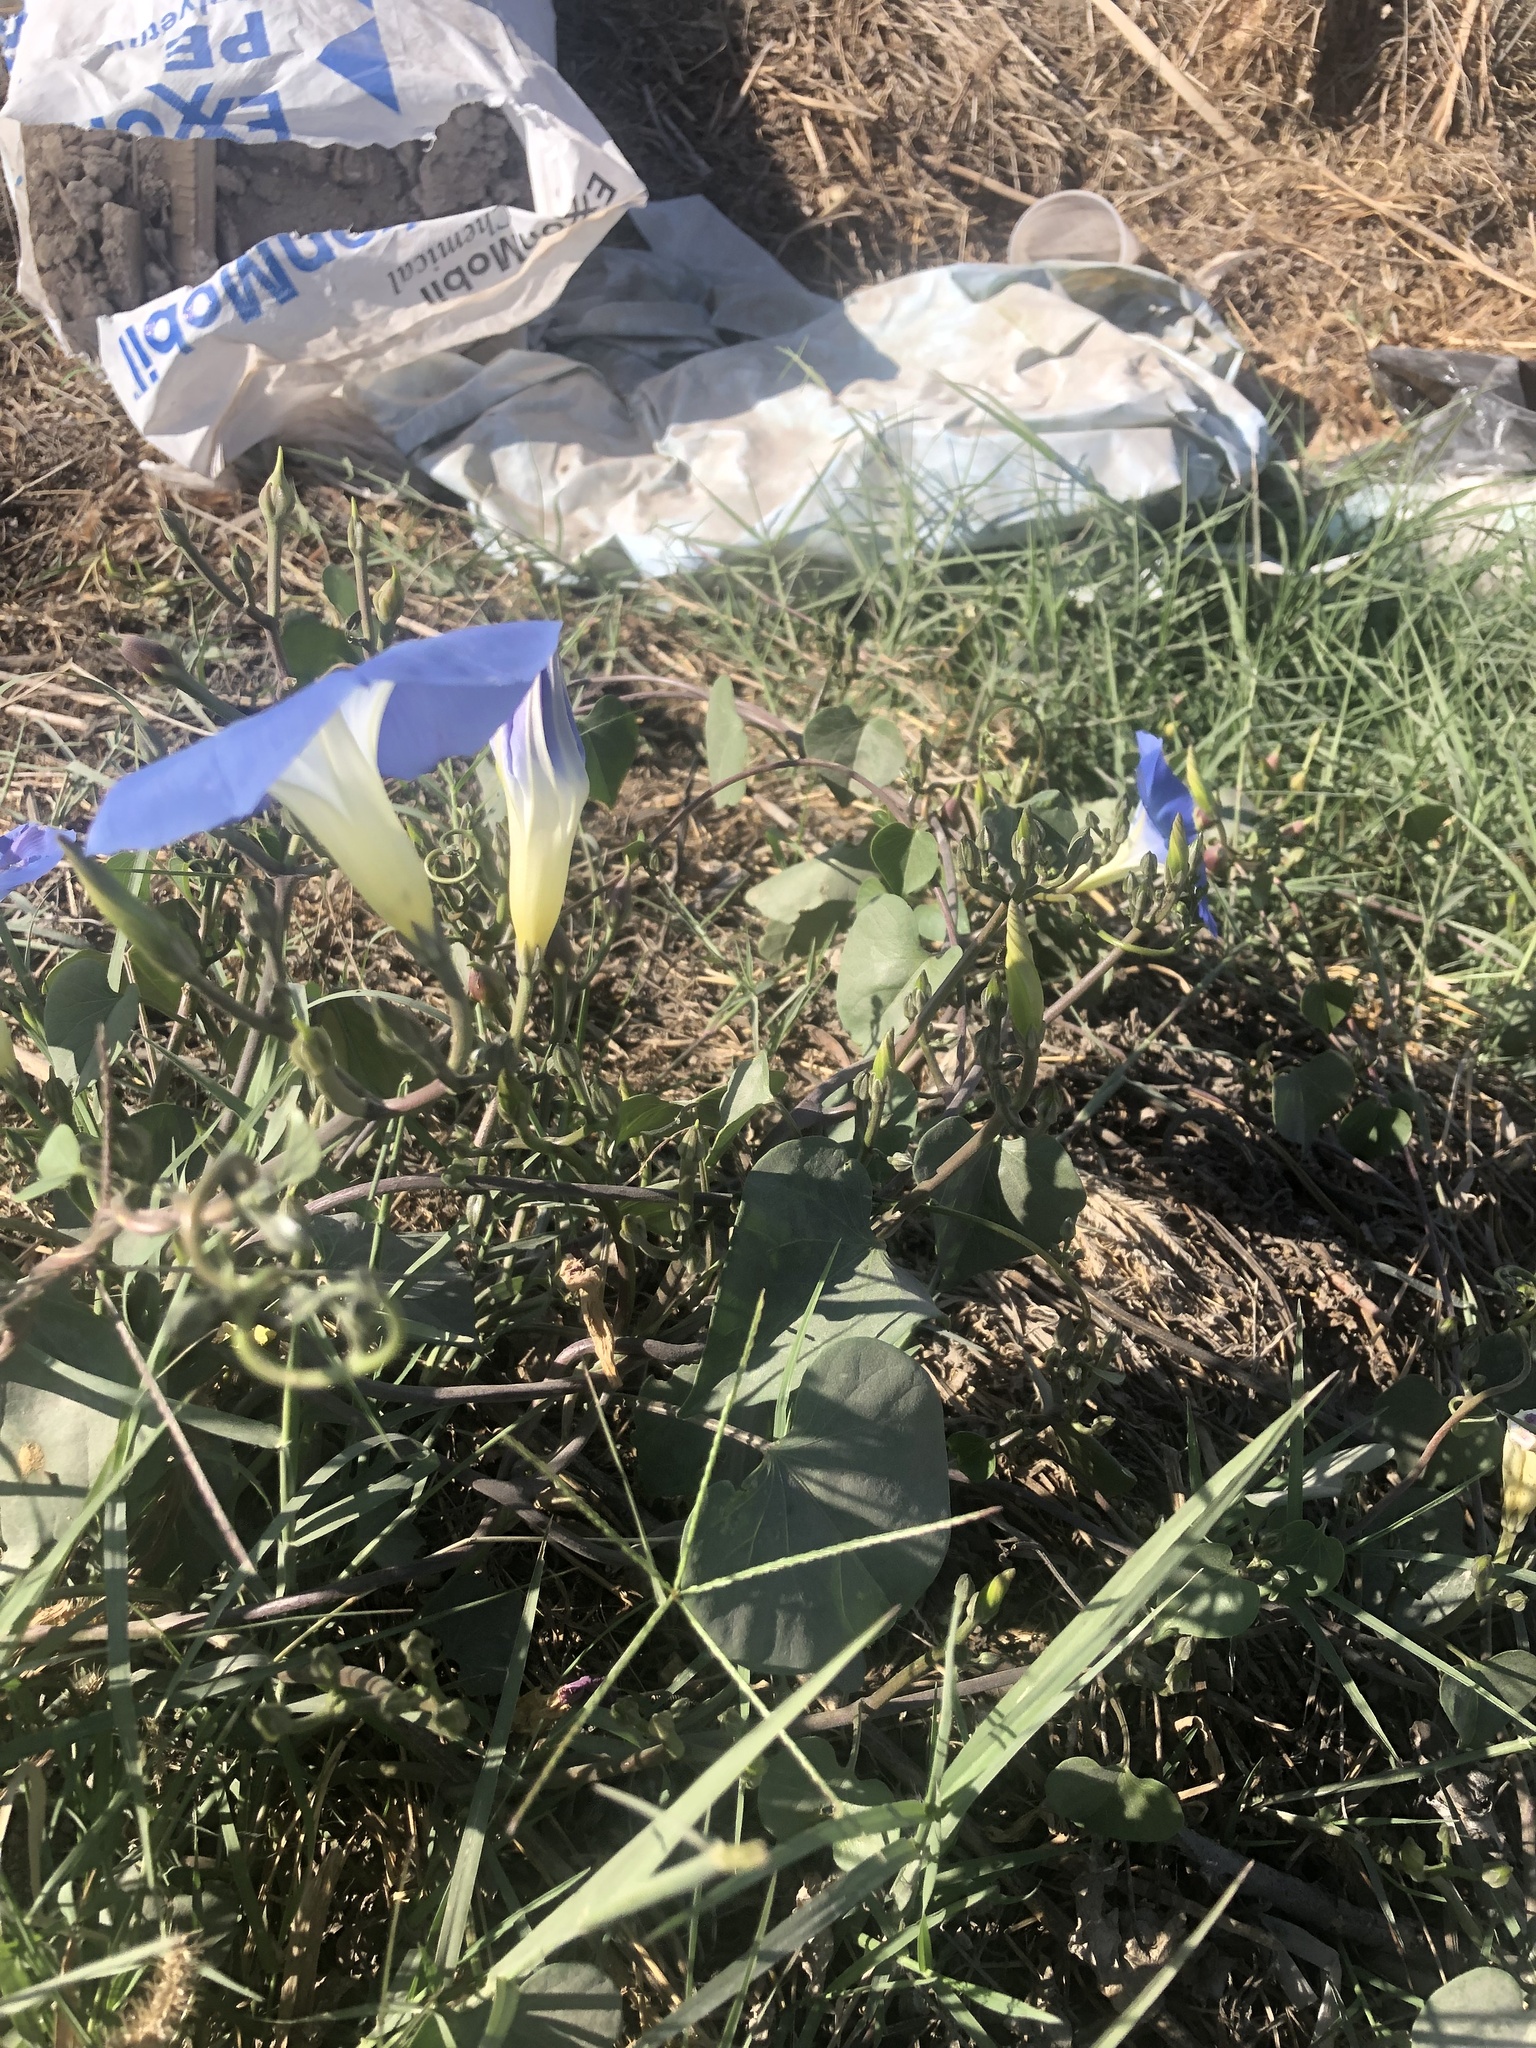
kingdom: Plantae
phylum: Tracheophyta
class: Magnoliopsida
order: Solanales
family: Convolvulaceae
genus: Ipomoea
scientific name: Ipomoea tricolor
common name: Morning-glory
